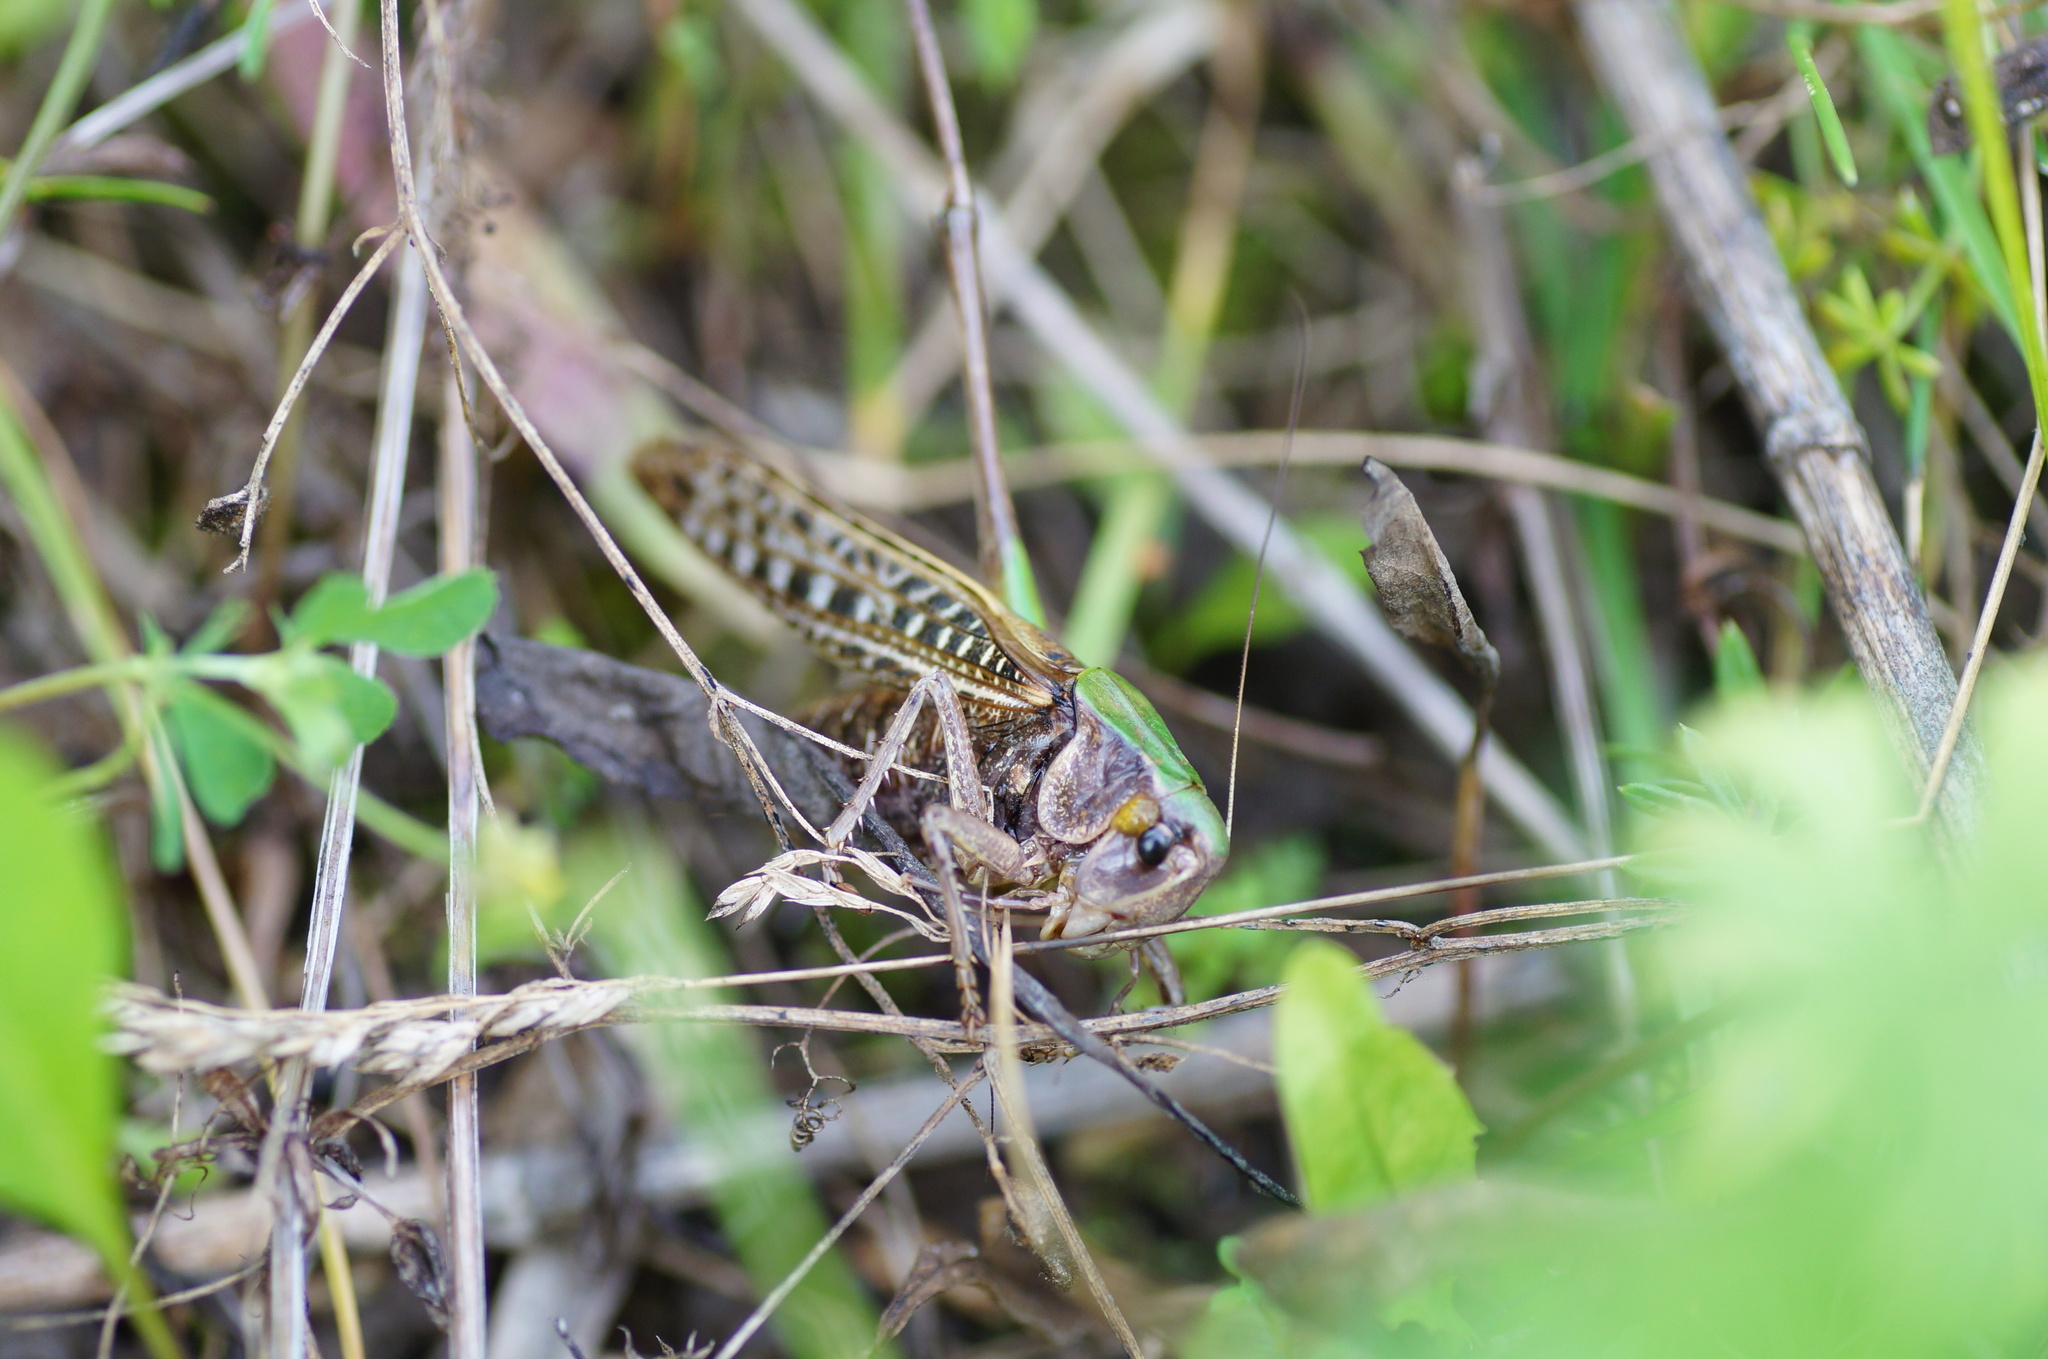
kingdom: Animalia
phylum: Arthropoda
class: Insecta
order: Orthoptera
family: Tettigoniidae
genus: Decticus
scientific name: Decticus verrucivorus
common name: Wart-biter
